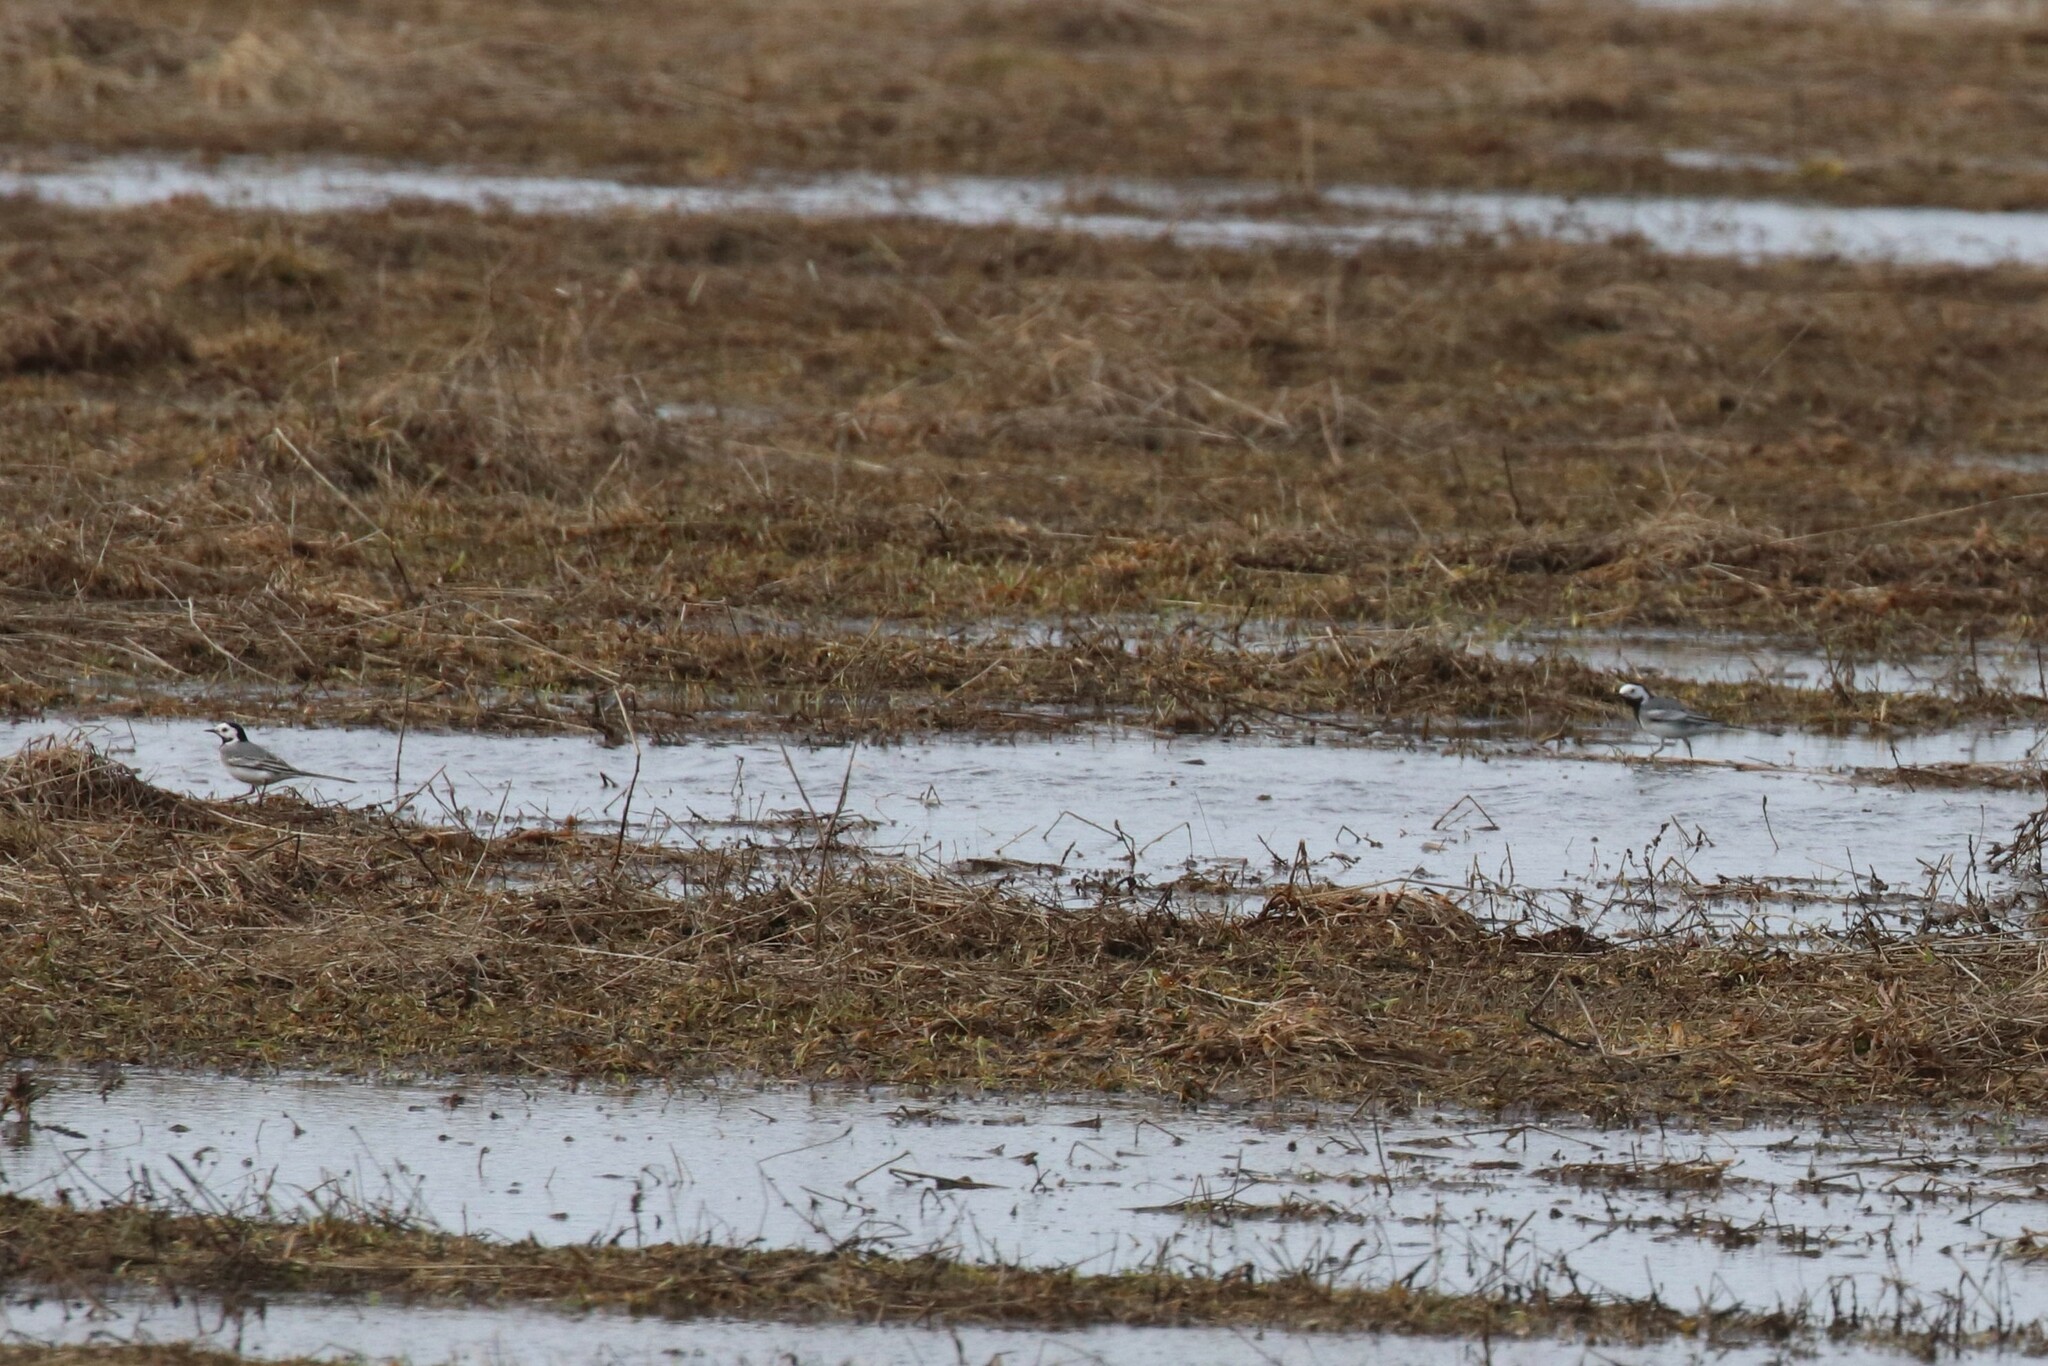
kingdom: Animalia
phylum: Chordata
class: Aves
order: Passeriformes
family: Motacillidae
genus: Motacilla
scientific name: Motacilla alba
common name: White wagtail
